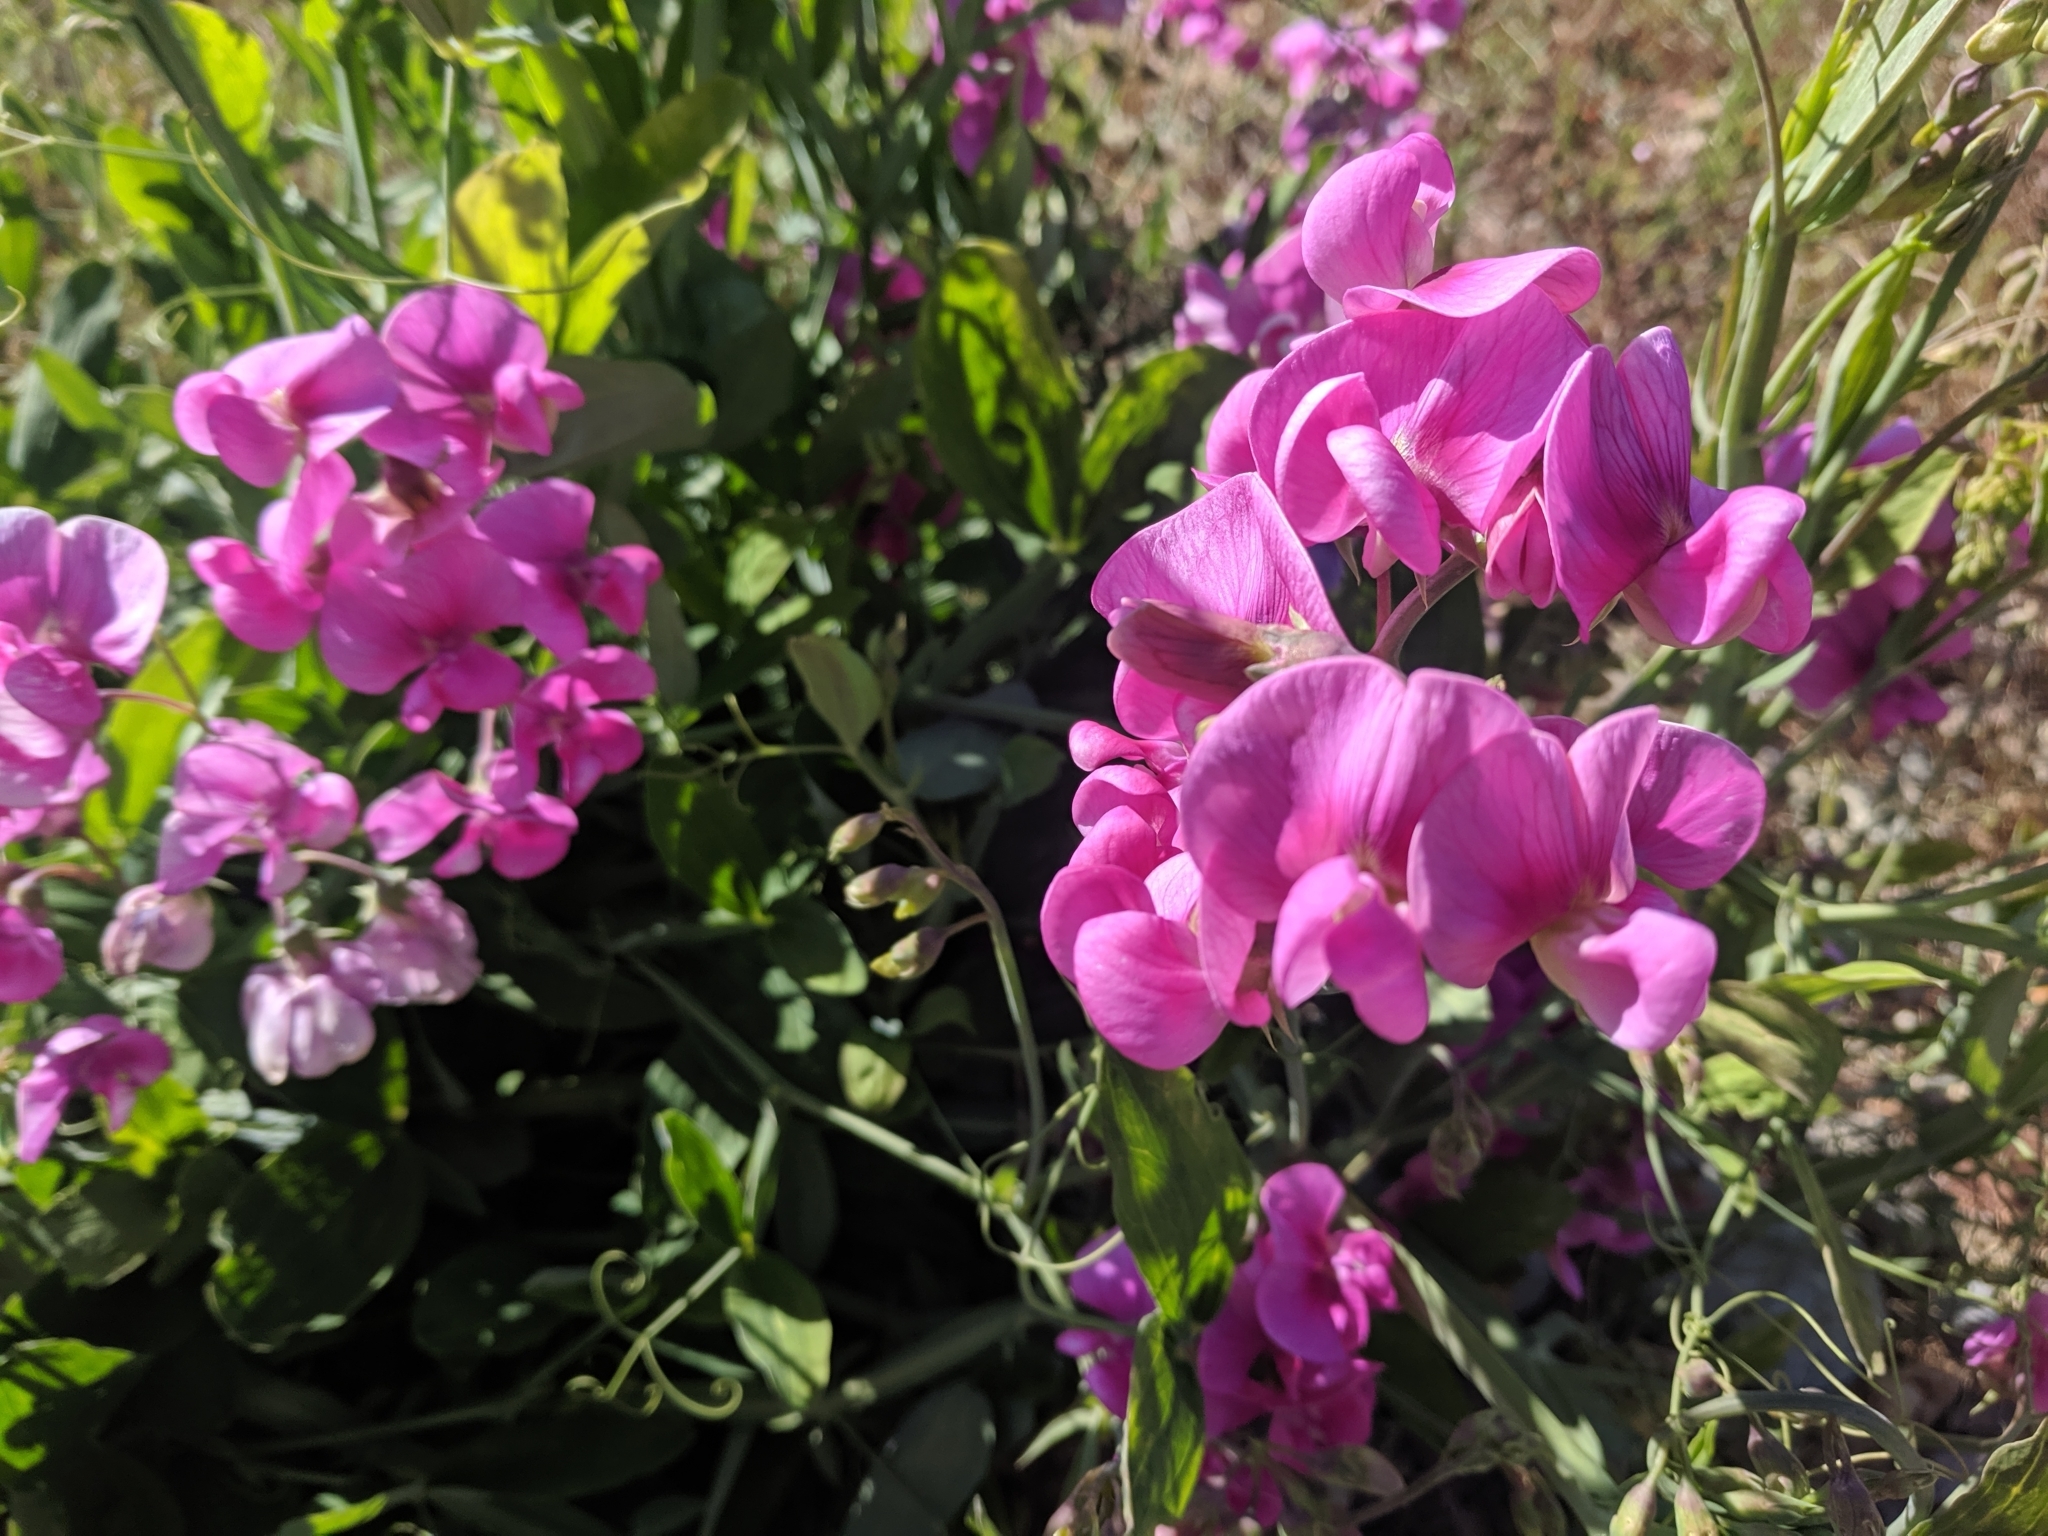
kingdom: Plantae
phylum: Tracheophyta
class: Magnoliopsida
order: Fabales
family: Fabaceae
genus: Lathyrus
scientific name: Lathyrus latifolius
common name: Perennial pea
